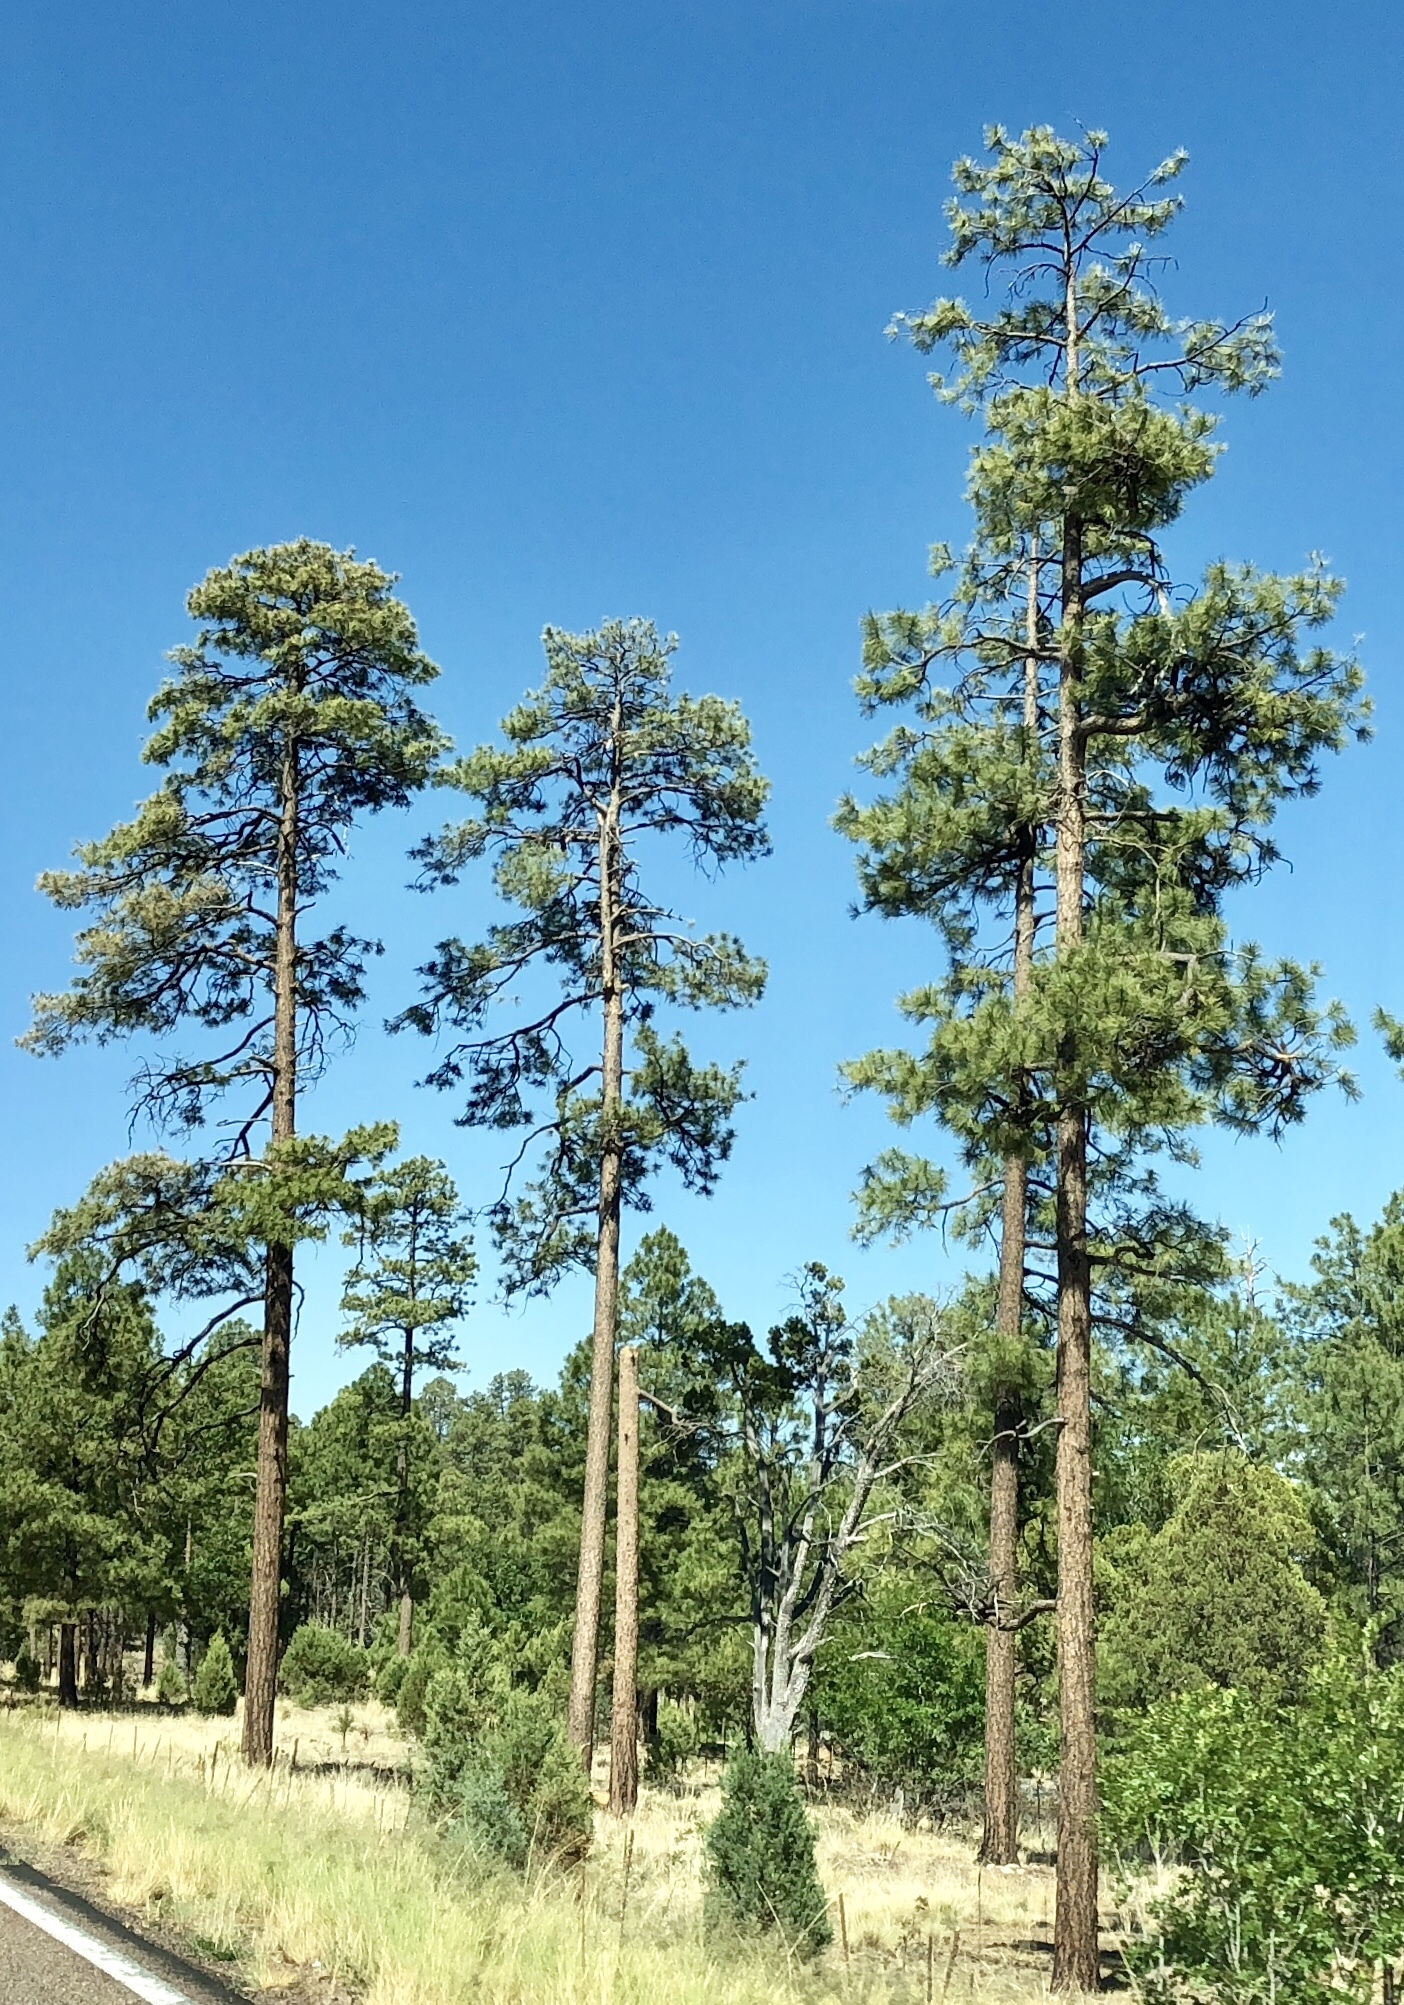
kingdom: Plantae
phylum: Tracheophyta
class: Pinopsida
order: Pinales
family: Pinaceae
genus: Pinus
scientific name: Pinus ponderosa
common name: Western yellow-pine
